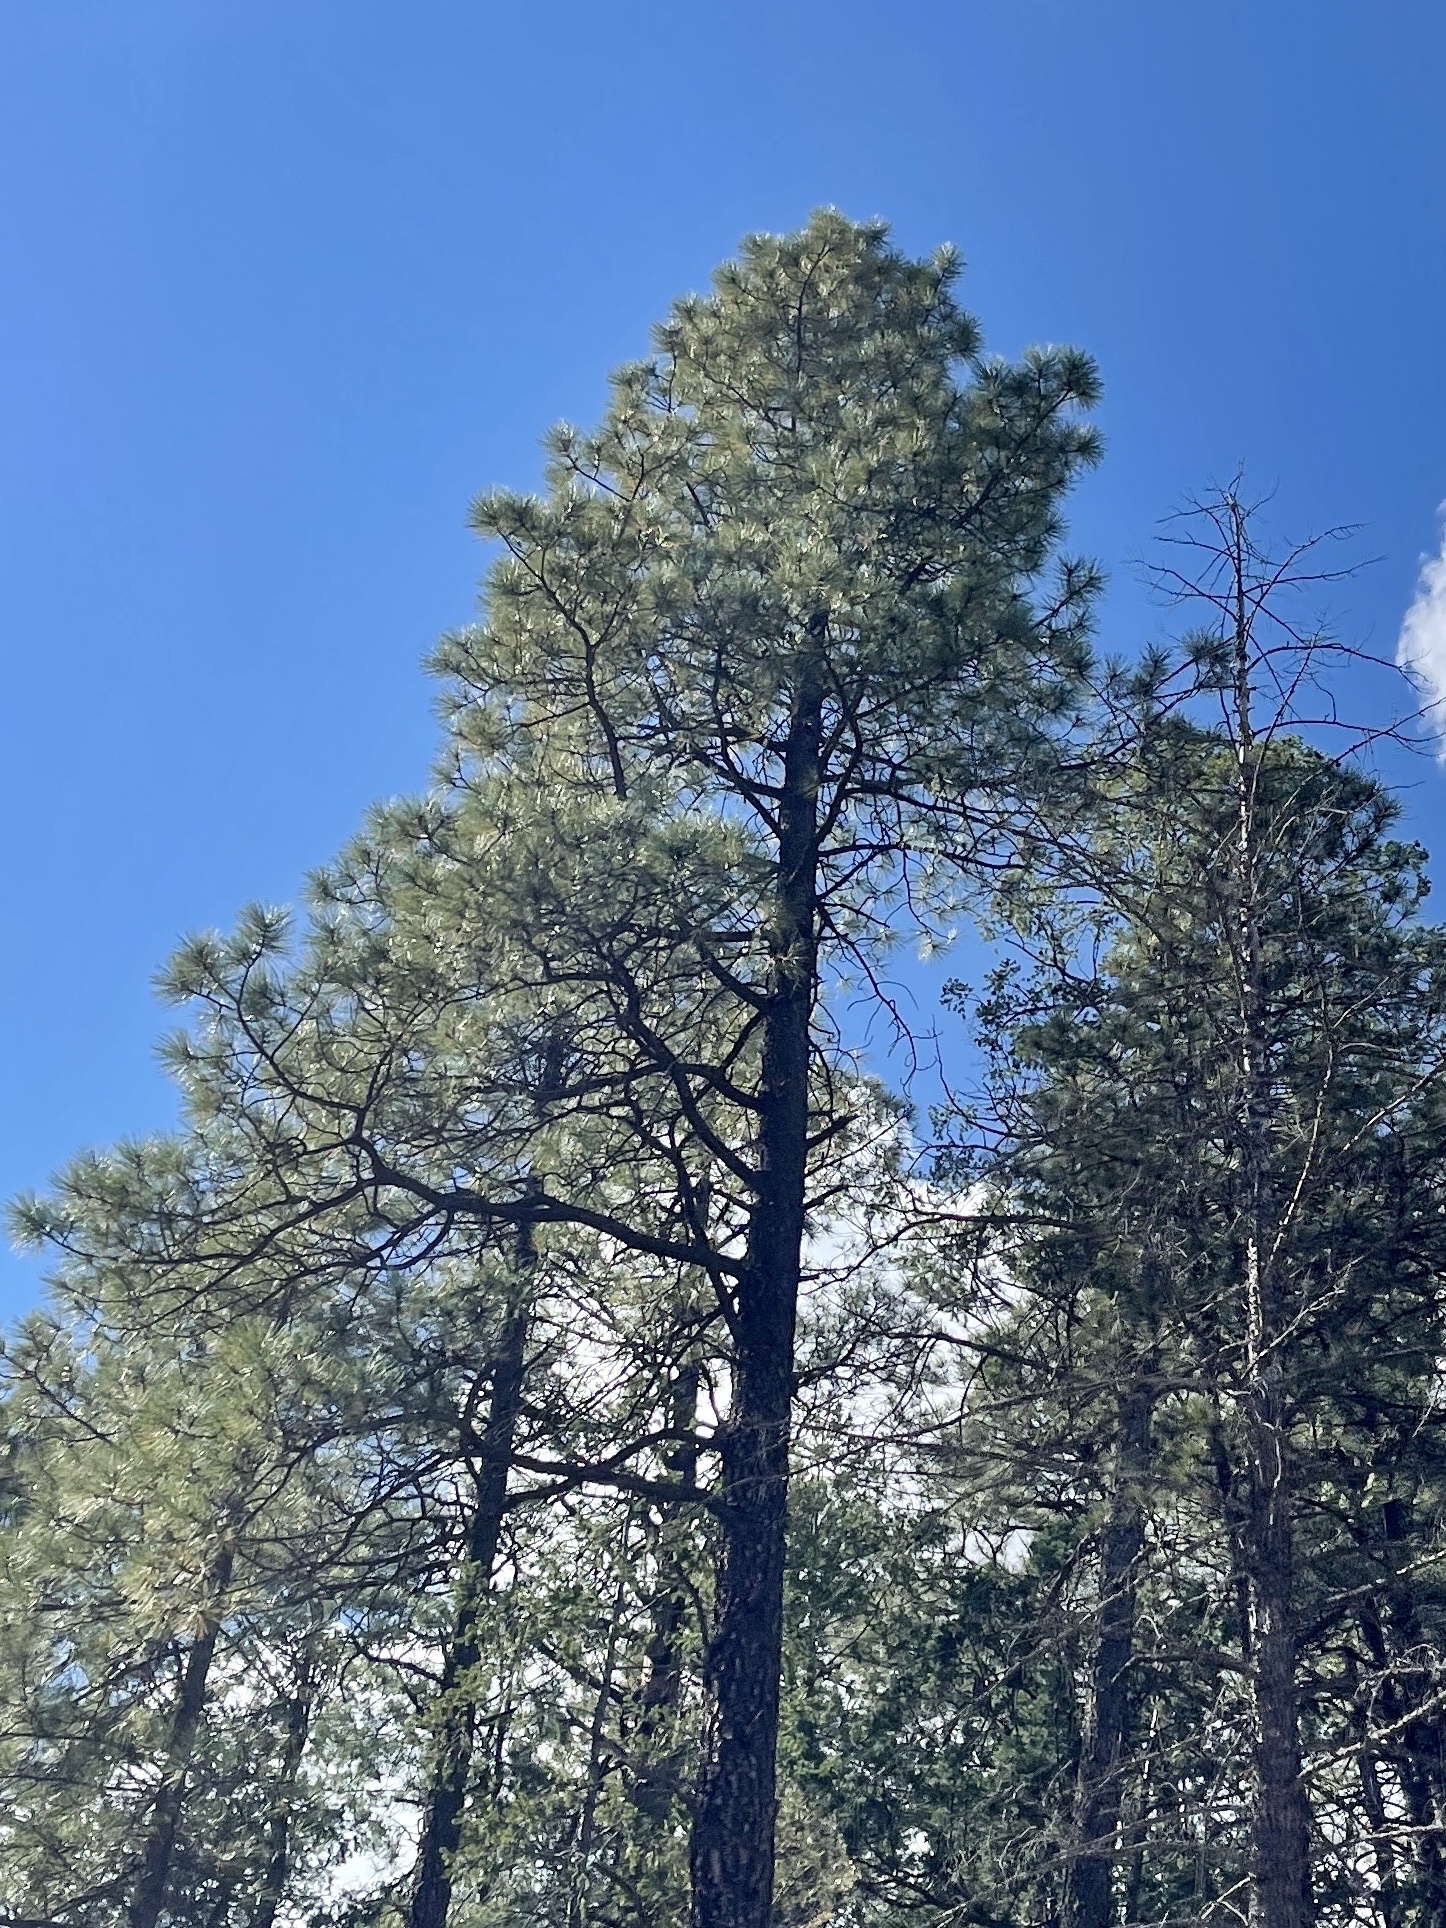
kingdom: Plantae
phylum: Tracheophyta
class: Pinopsida
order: Pinales
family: Pinaceae
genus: Pinus
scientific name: Pinus ponderosa
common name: Western yellow-pine
